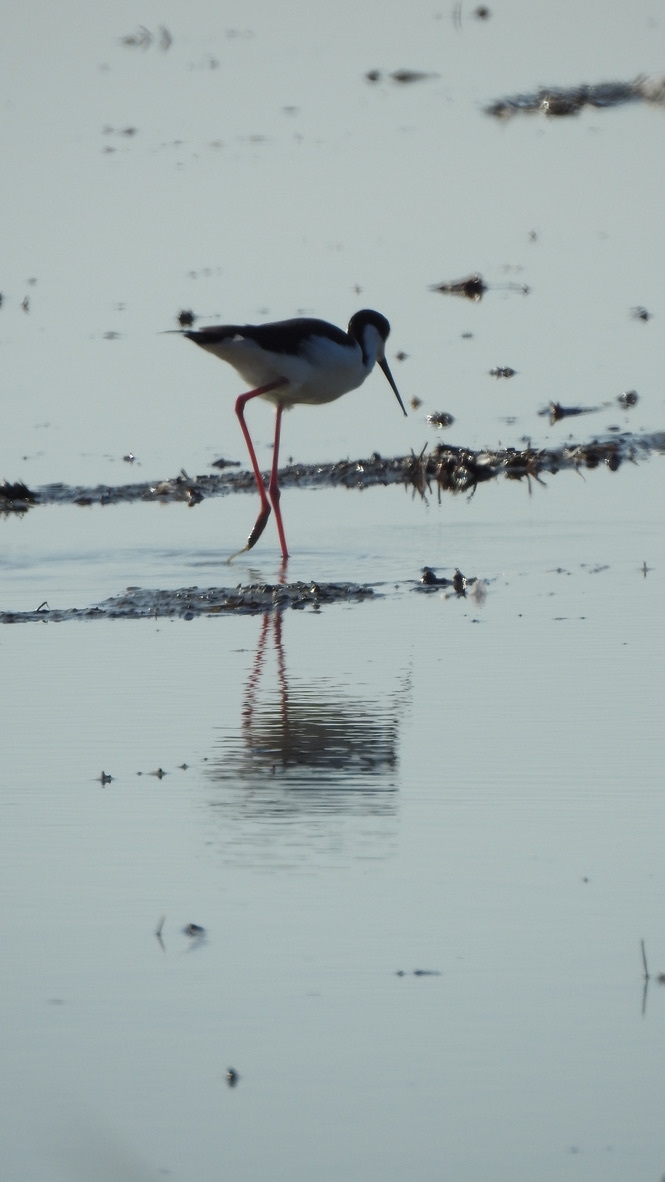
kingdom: Animalia
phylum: Chordata
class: Aves
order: Charadriiformes
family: Recurvirostridae
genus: Himantopus
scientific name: Himantopus mexicanus
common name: Black-necked stilt
